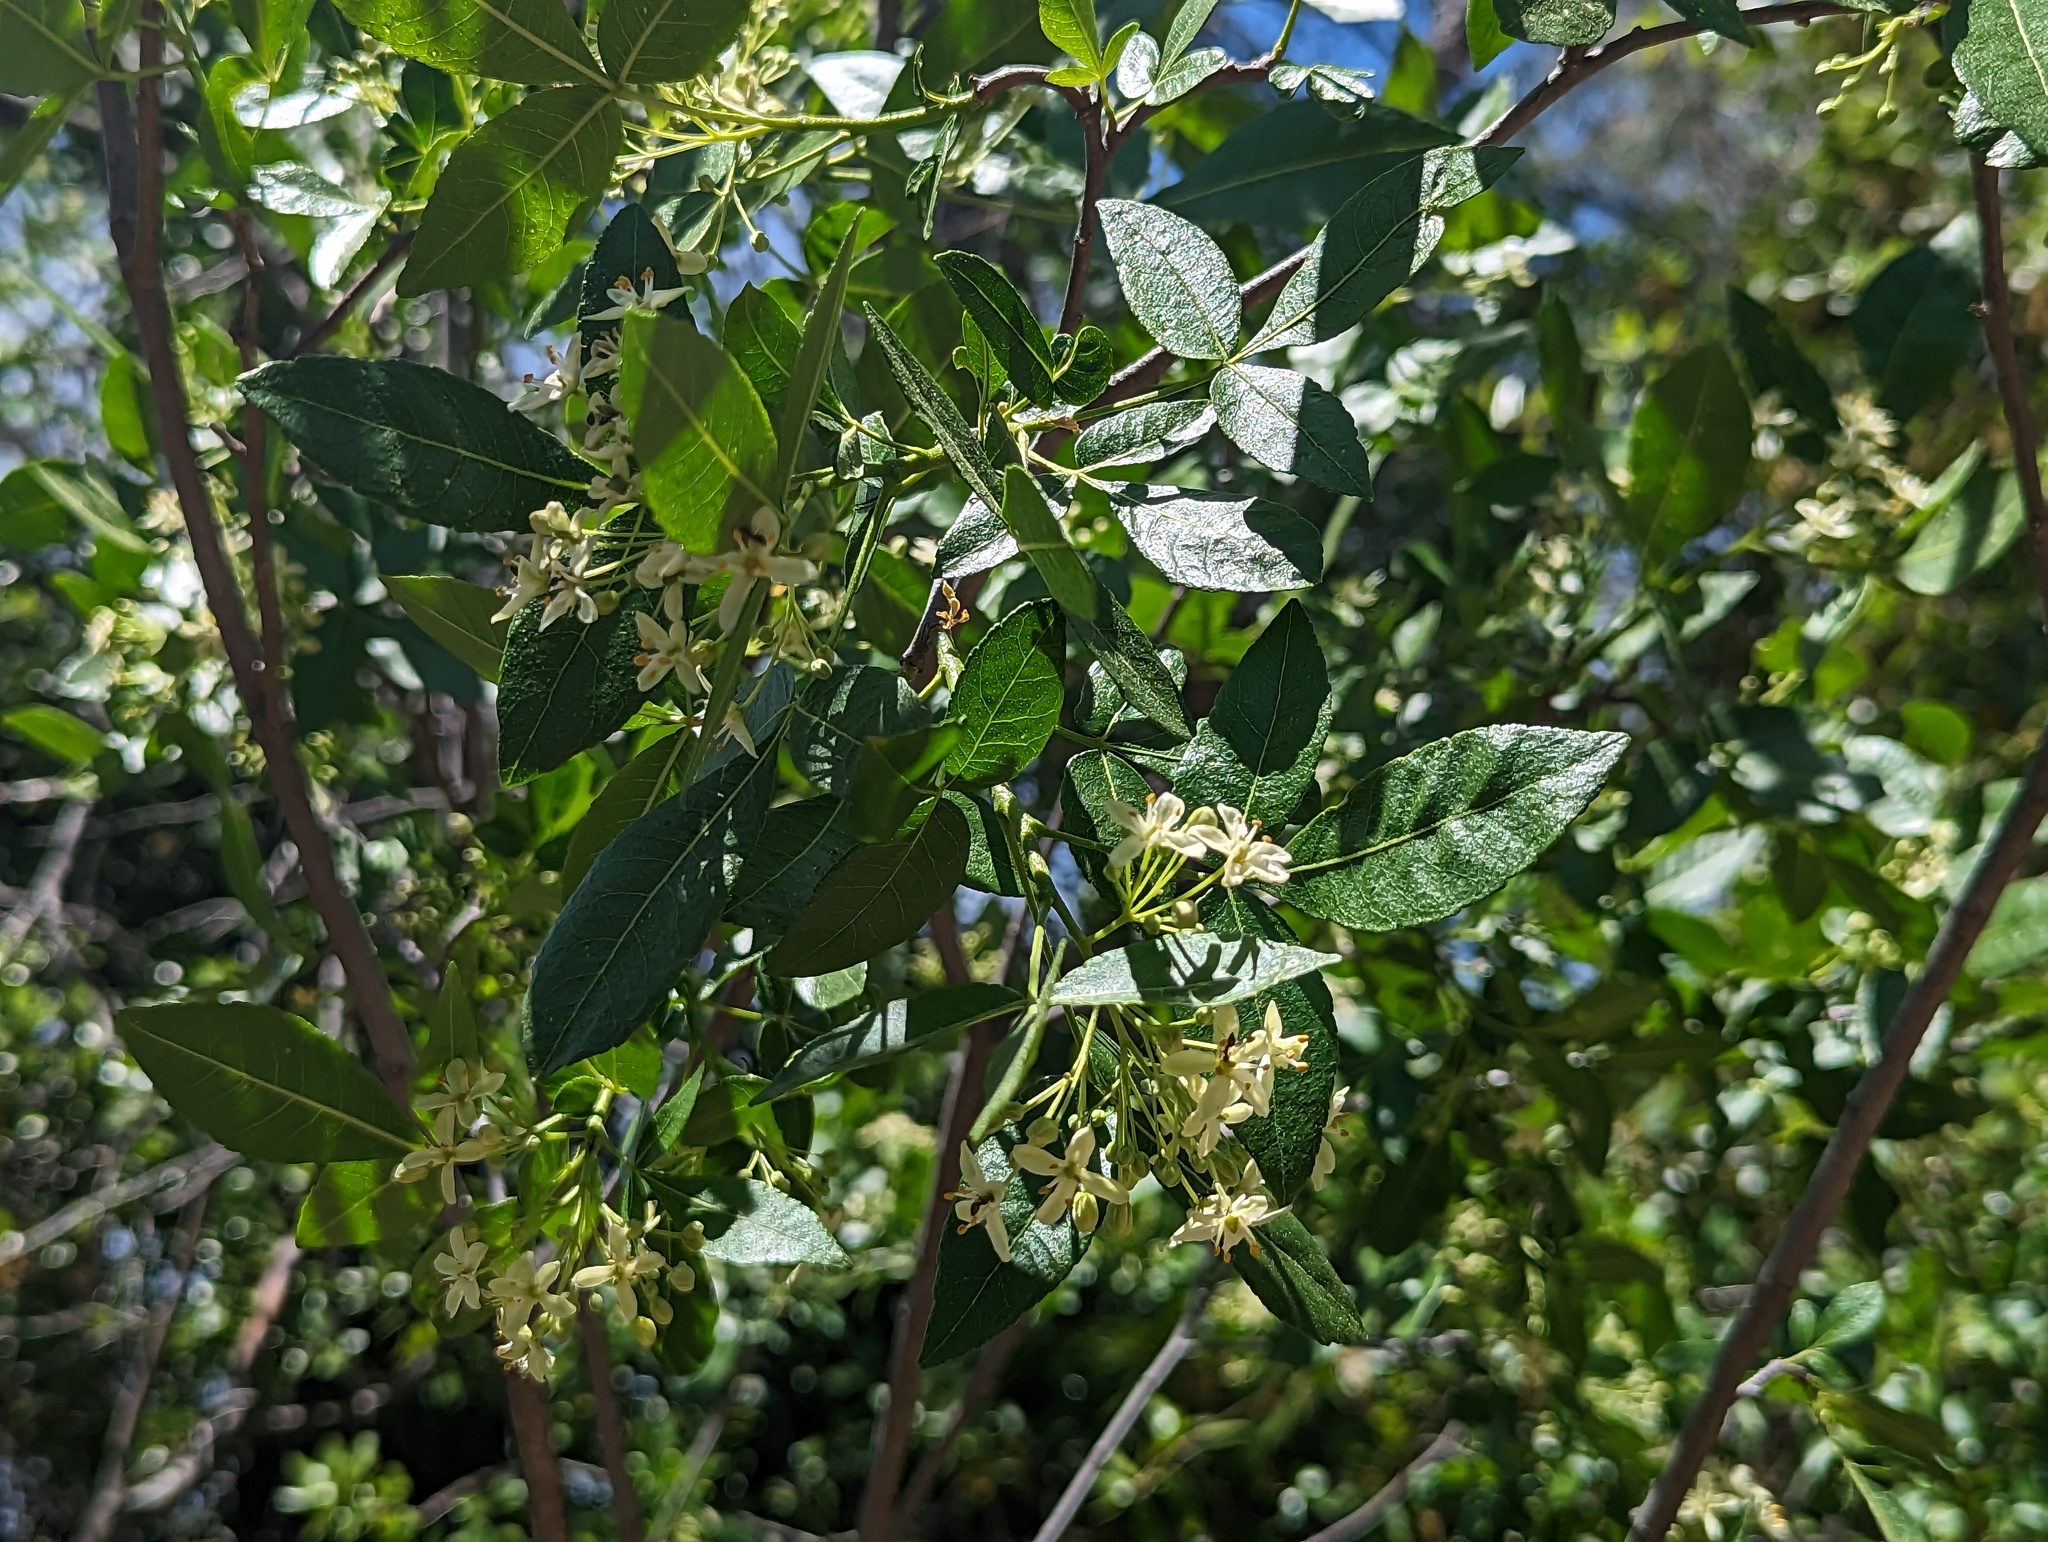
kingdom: Plantae
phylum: Tracheophyta
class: Magnoliopsida
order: Sapindales
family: Rutaceae
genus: Ptelea
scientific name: Ptelea crenulata
